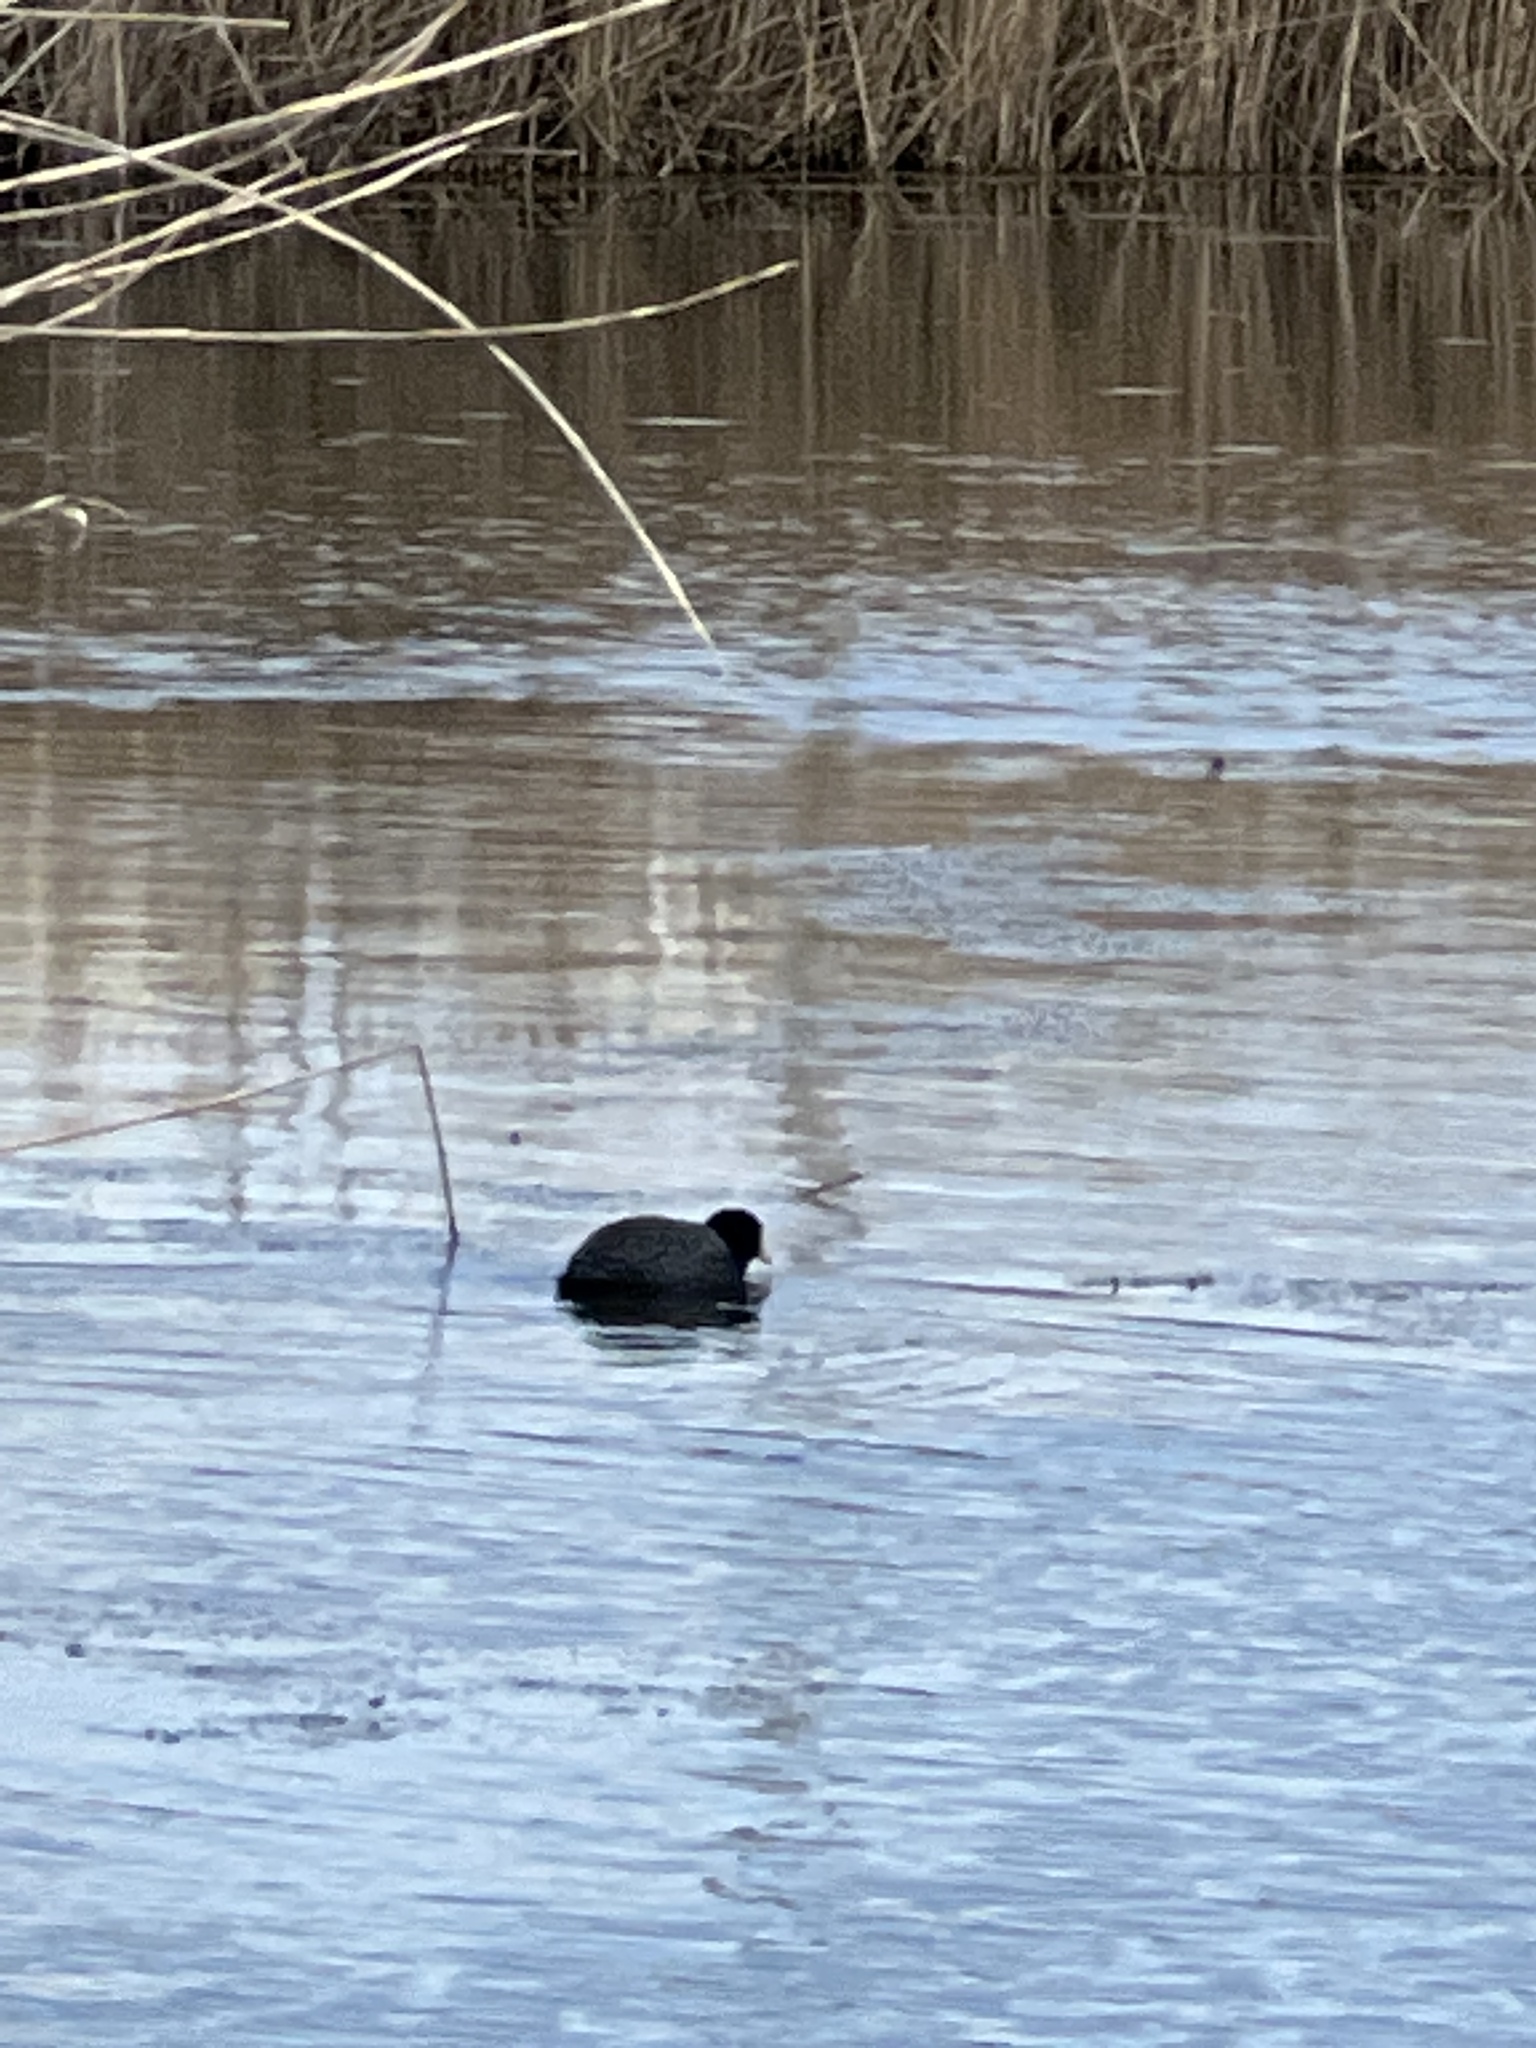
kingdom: Animalia
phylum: Chordata
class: Aves
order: Gruiformes
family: Rallidae
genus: Fulica
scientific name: Fulica atra
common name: Eurasian coot
